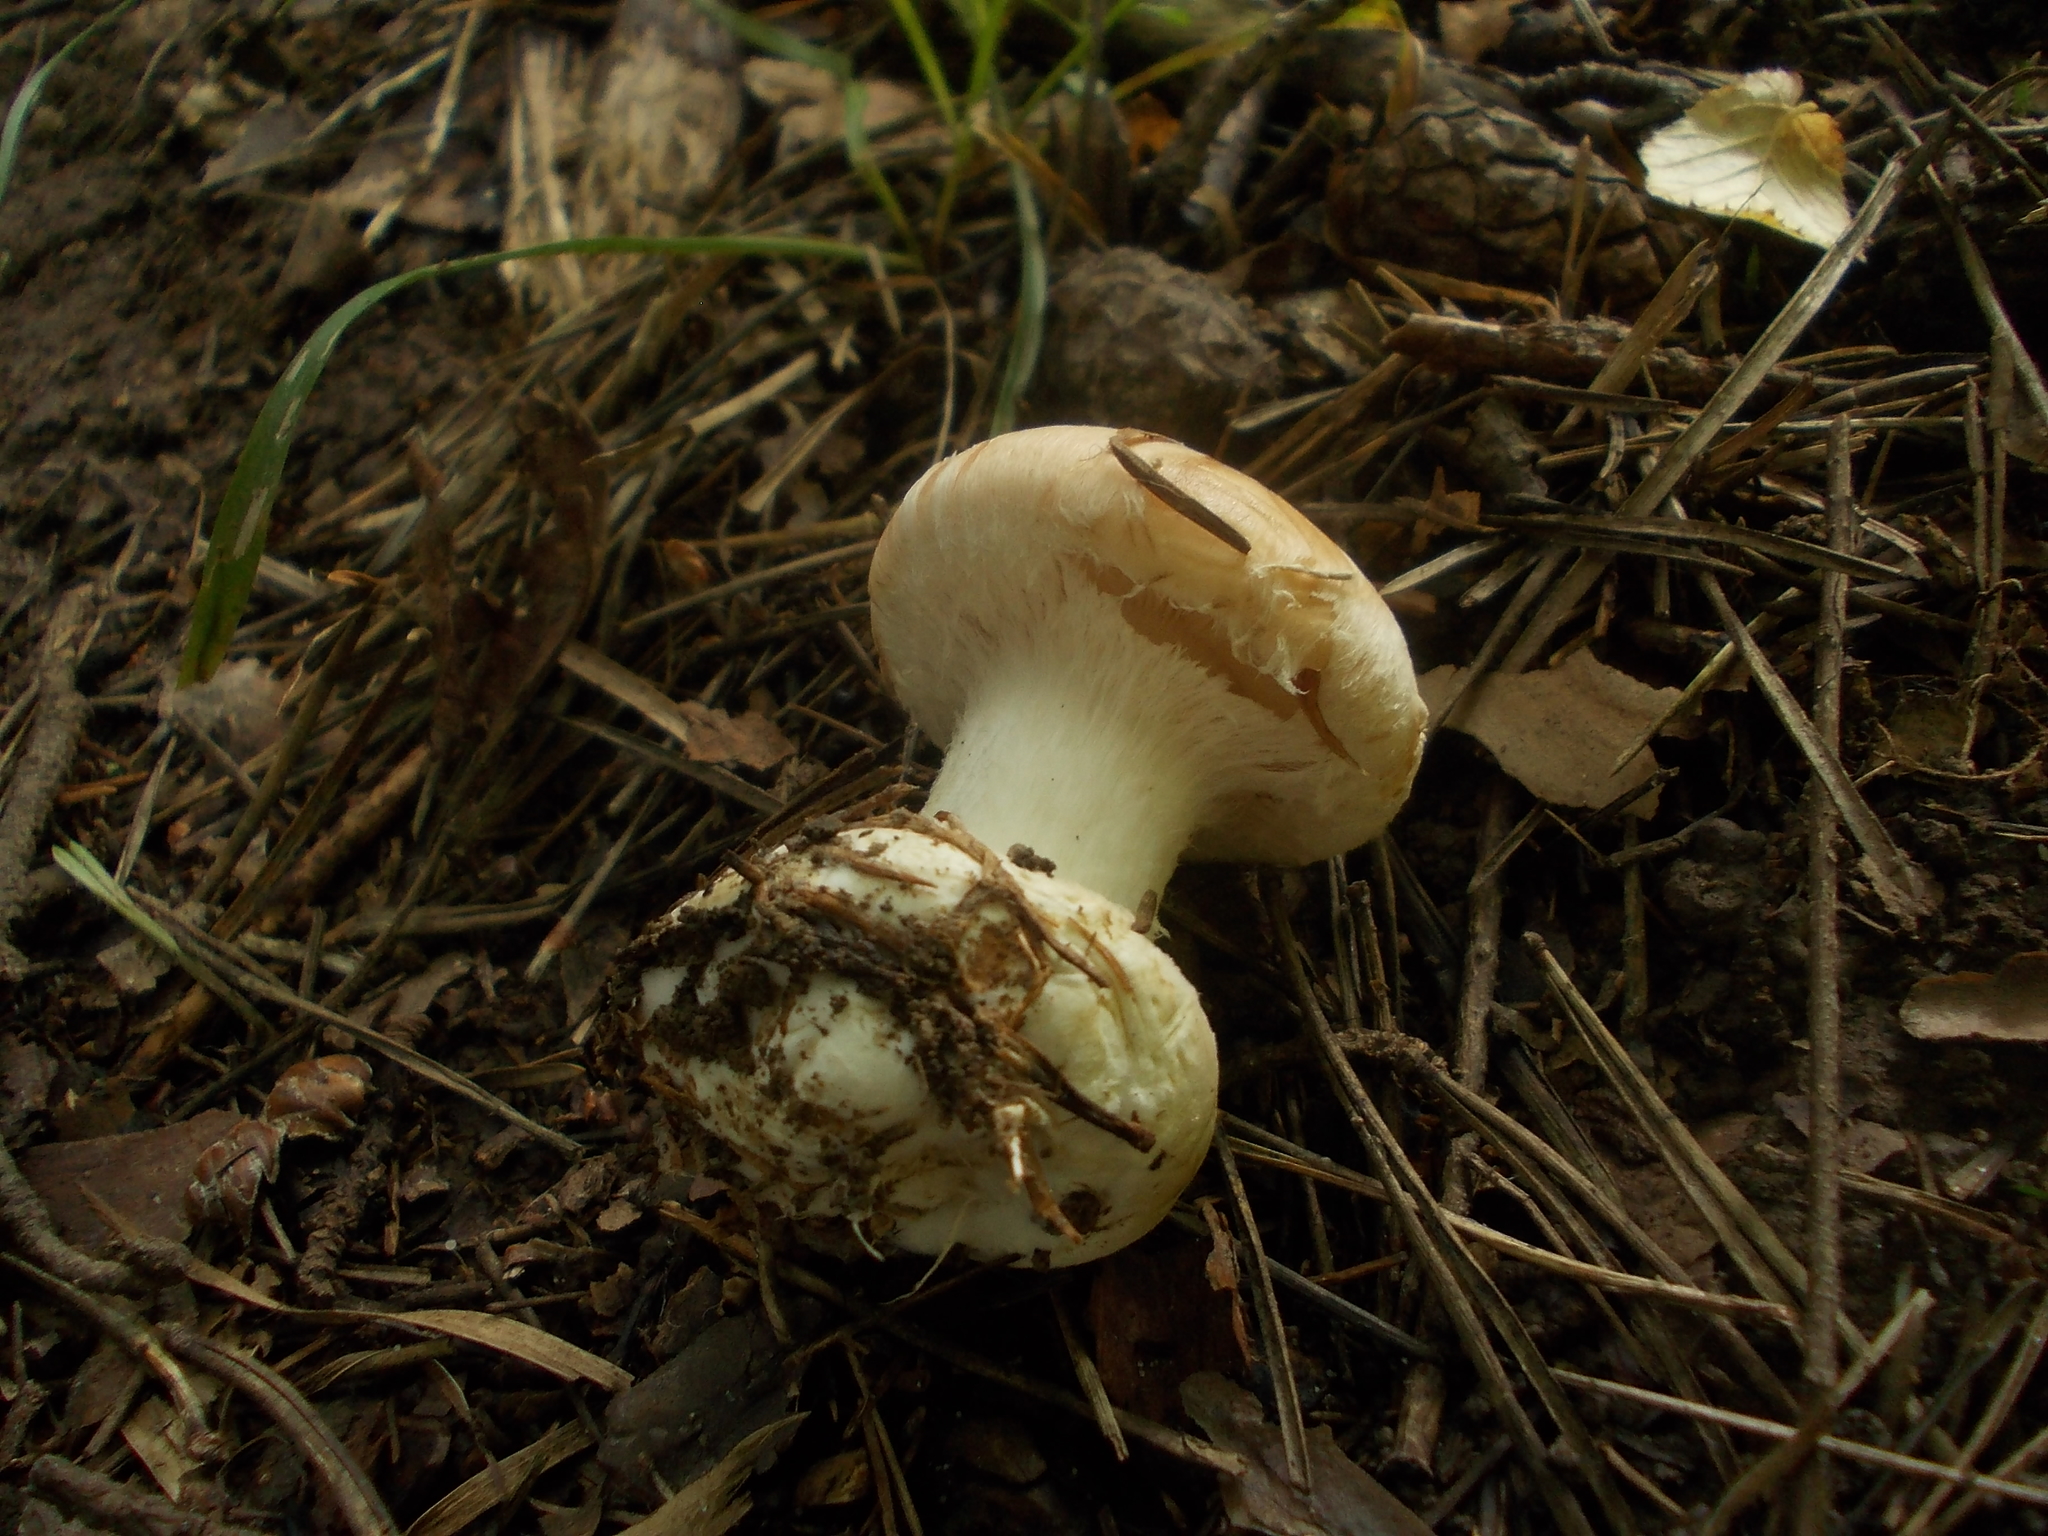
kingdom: Fungi
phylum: Basidiomycota
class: Agaricomycetes
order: Agaricales
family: Tricholomataceae
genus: Leucocortinarius
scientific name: Leucocortinarius bulbiger
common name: White webcap
